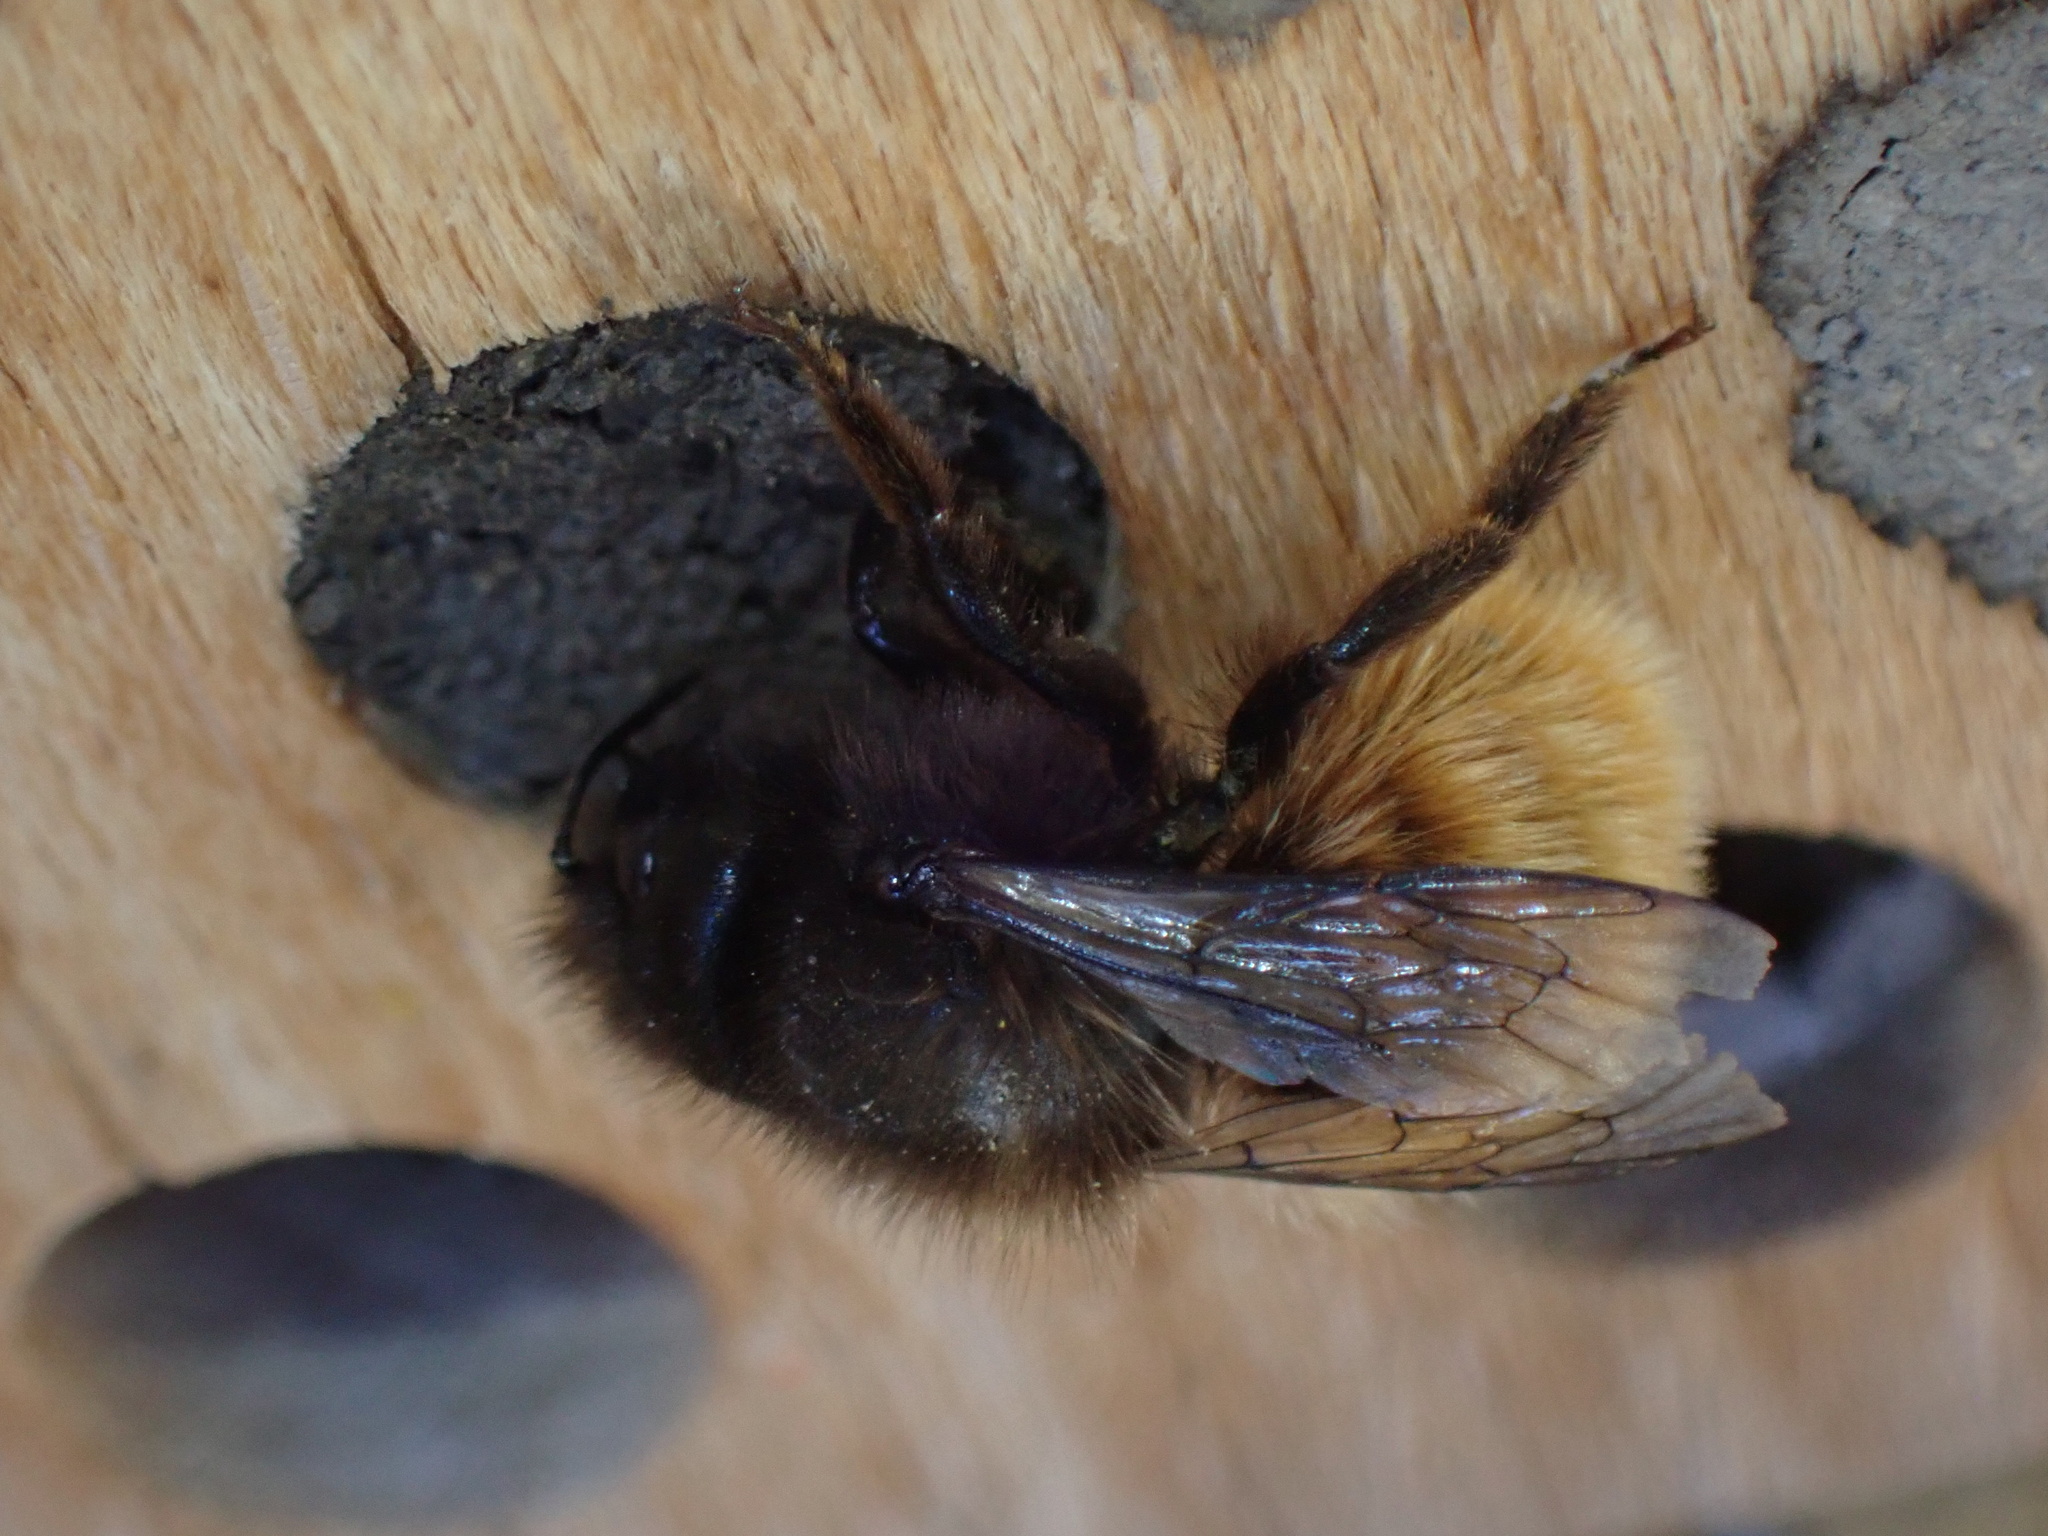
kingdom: Animalia
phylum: Arthropoda
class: Insecta
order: Hymenoptera
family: Megachilidae
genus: Osmia
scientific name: Osmia cornuta
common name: Mason bee
